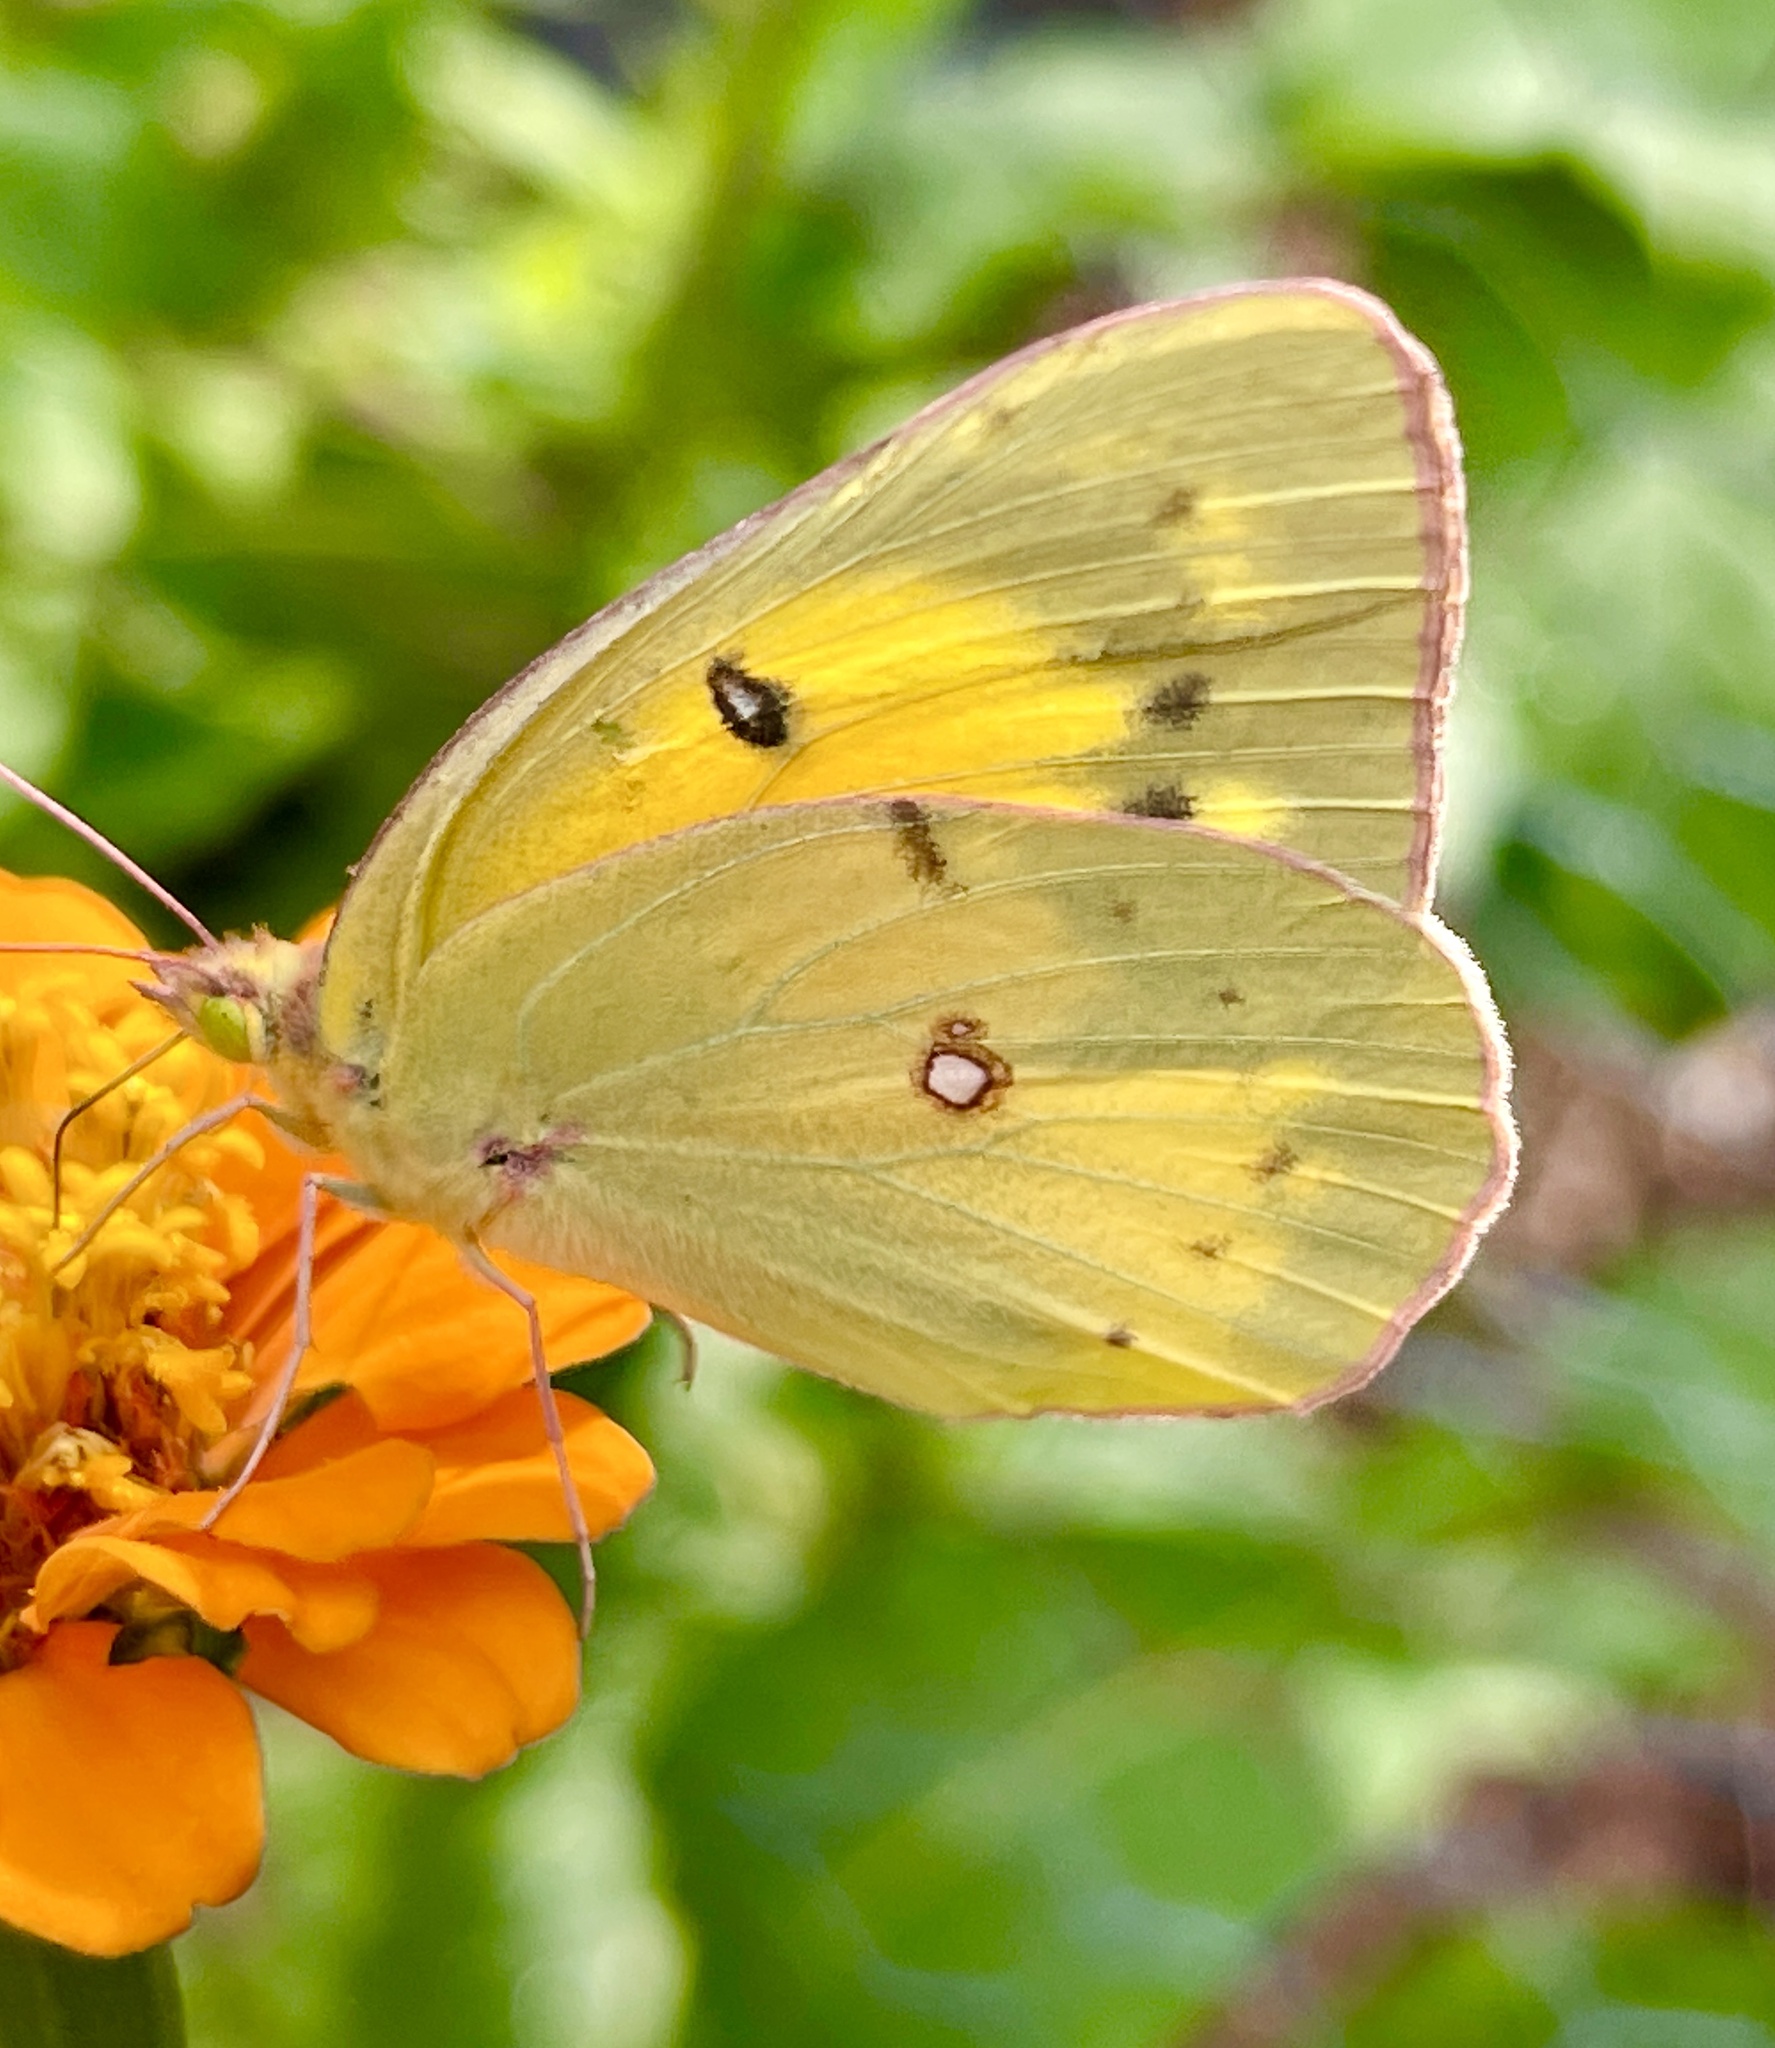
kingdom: Animalia
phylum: Arthropoda
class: Insecta
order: Lepidoptera
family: Pieridae
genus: Colias
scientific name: Colias eurytheme
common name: Alfalfa butterfly
